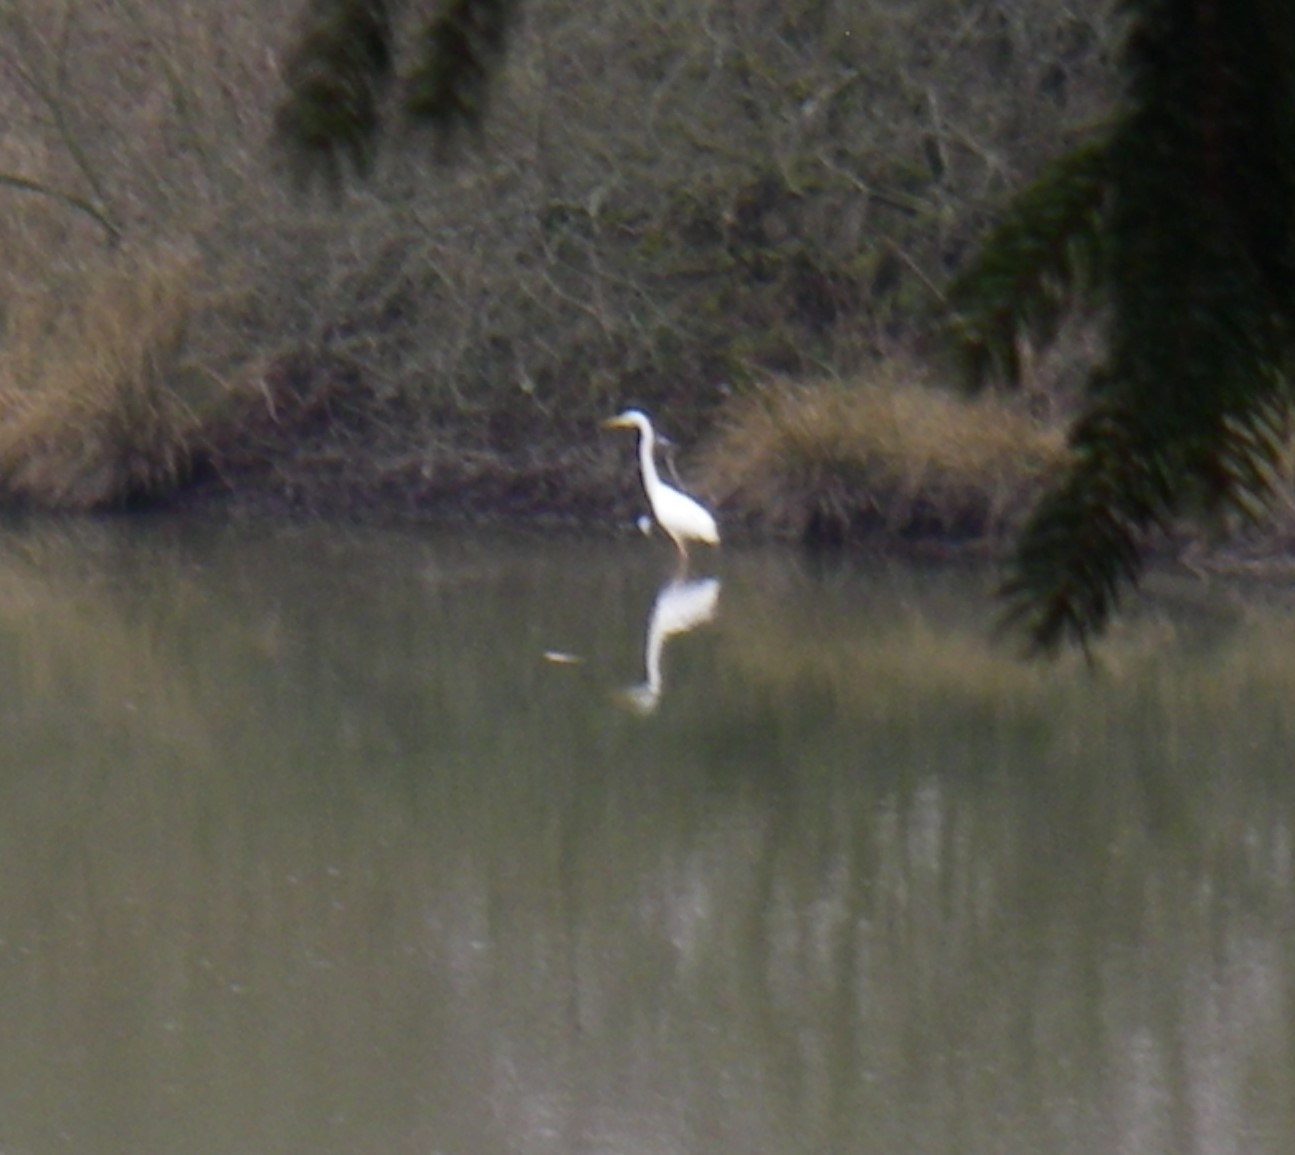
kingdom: Animalia
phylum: Chordata
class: Aves
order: Pelecaniformes
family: Ardeidae
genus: Ardea
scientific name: Ardea alba
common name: Great egret
